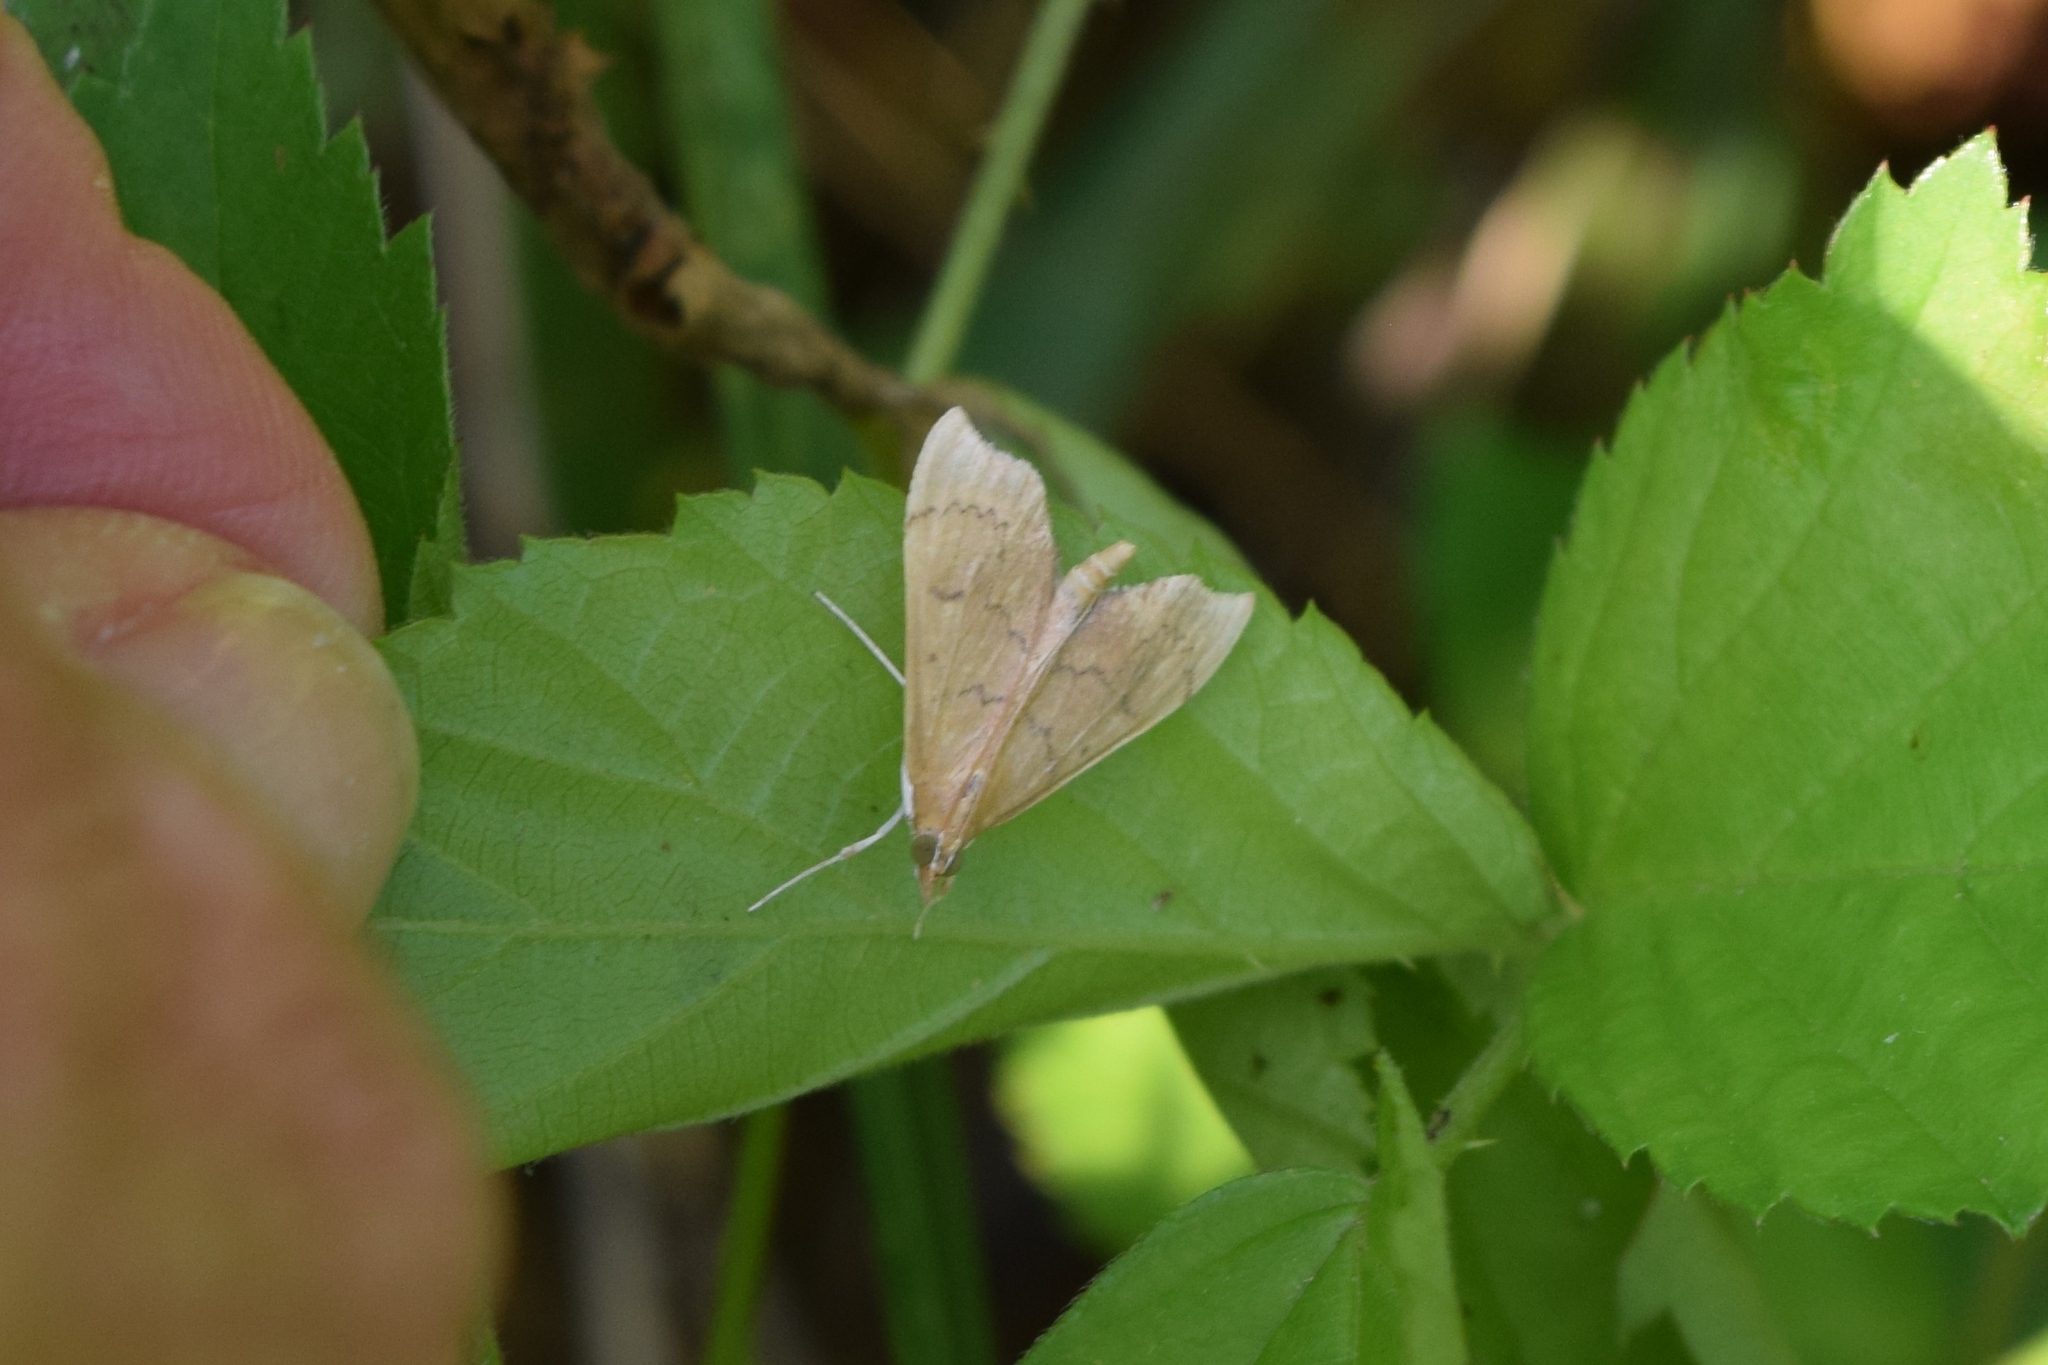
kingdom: Animalia
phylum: Arthropoda
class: Insecta
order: Lepidoptera
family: Crambidae
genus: Sericoplaga
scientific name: Sericoplaga externalis
